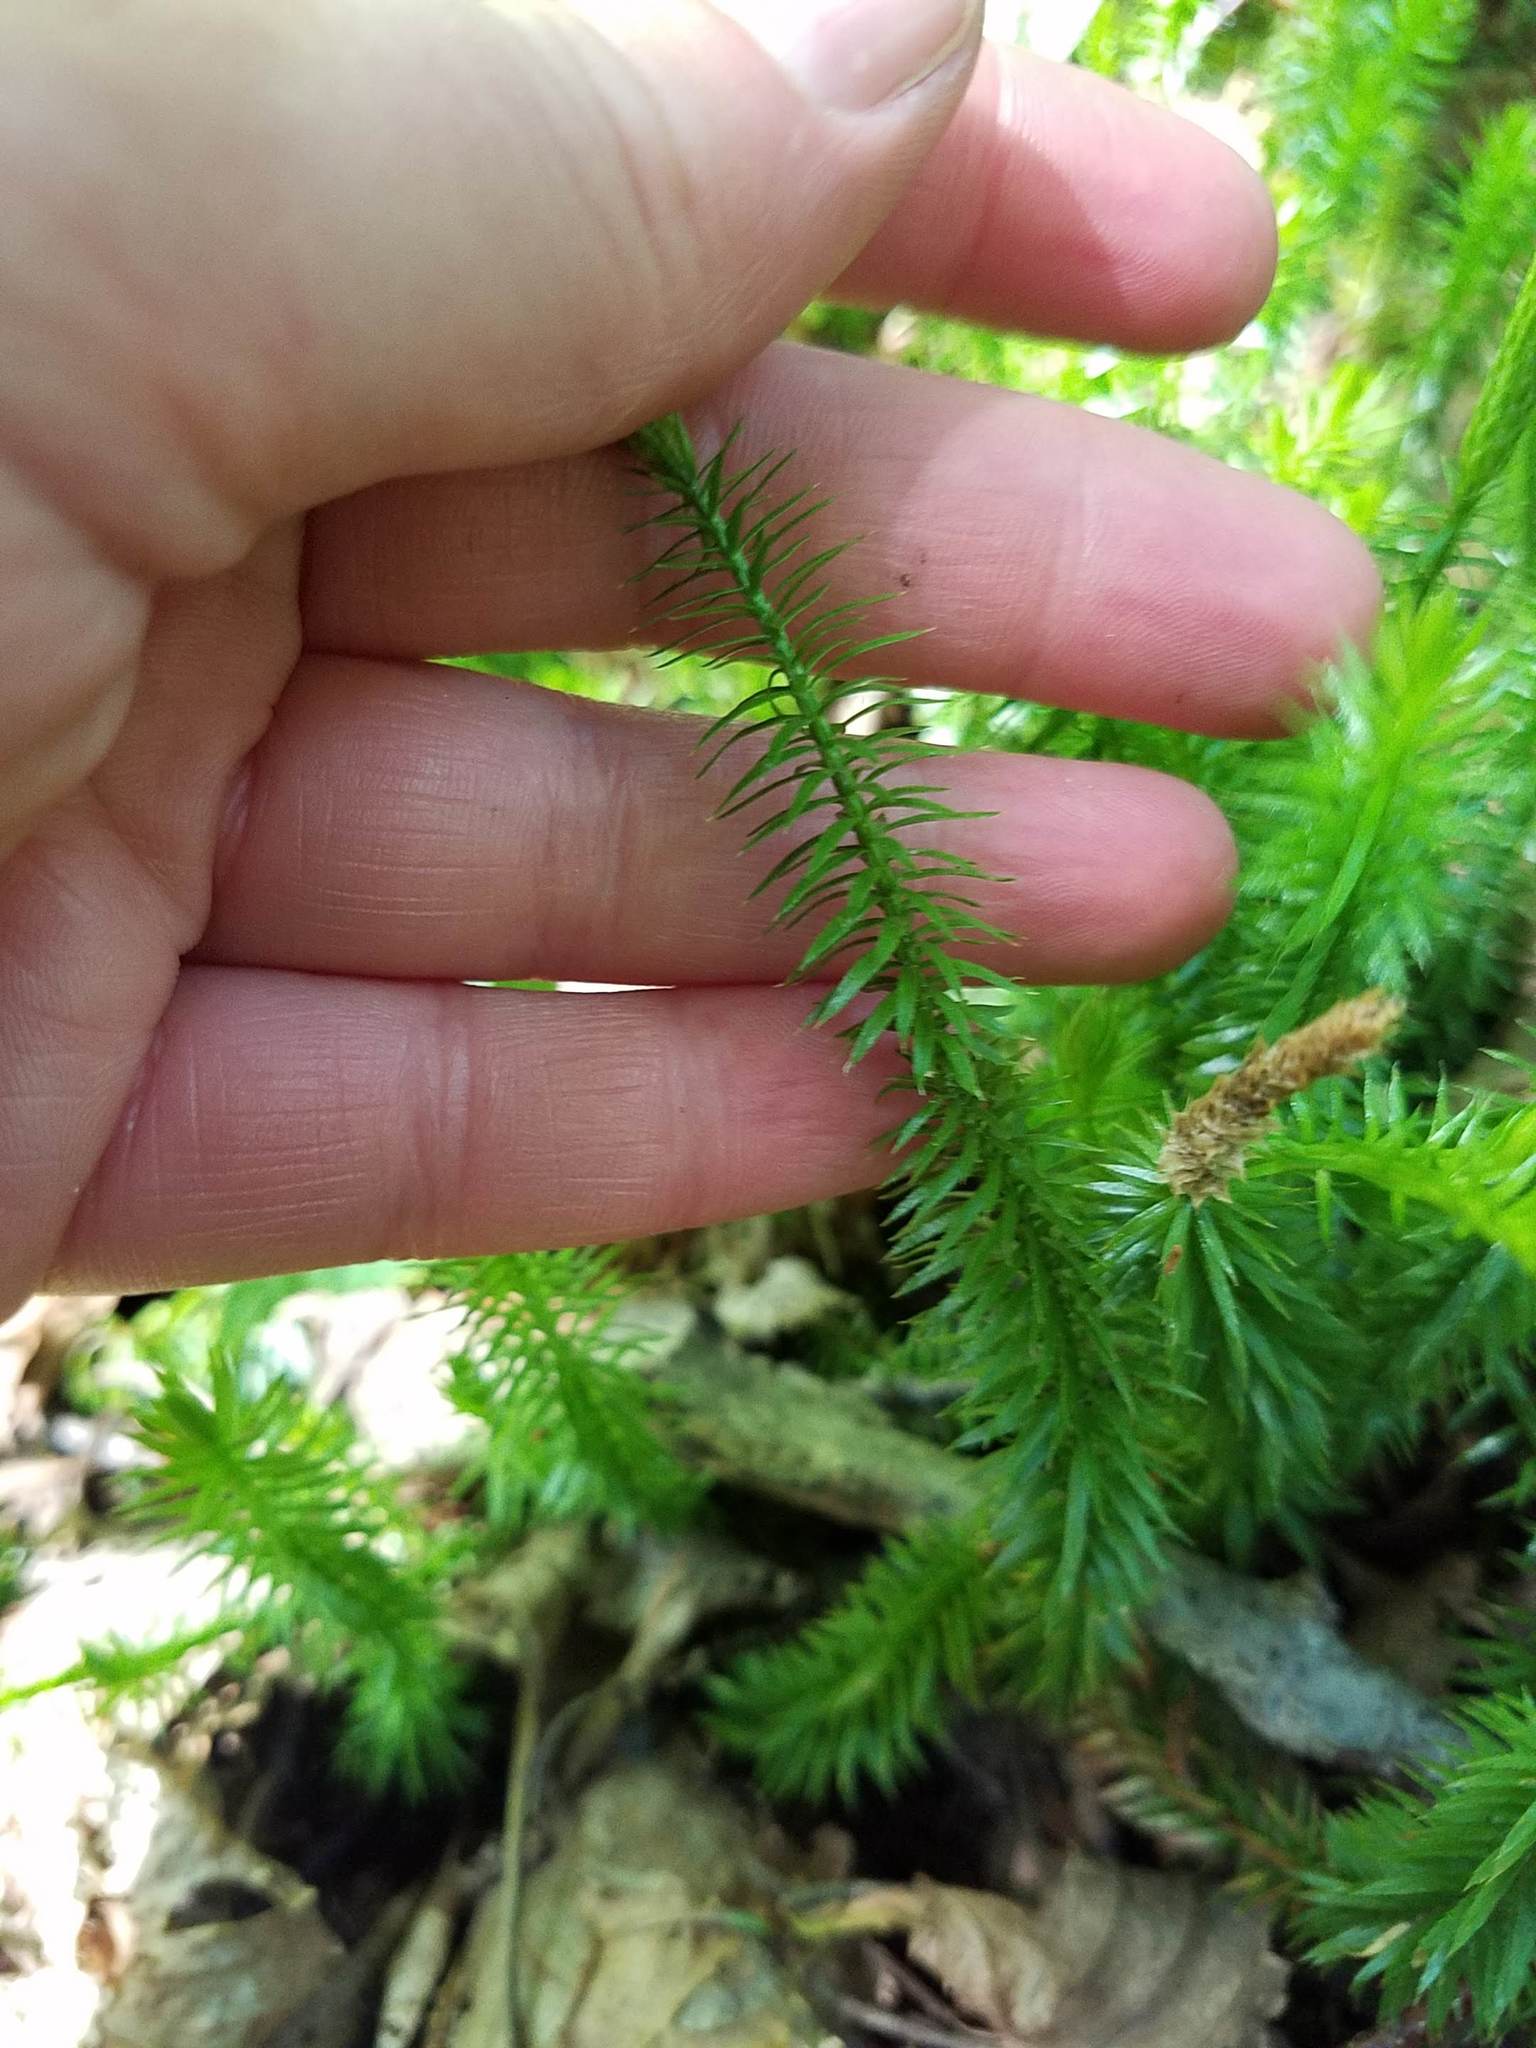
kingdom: Plantae
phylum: Tracheophyta
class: Lycopodiopsida
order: Lycopodiales
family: Lycopodiaceae
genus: Spinulum
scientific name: Spinulum annotinum
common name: Interrupted club-moss
